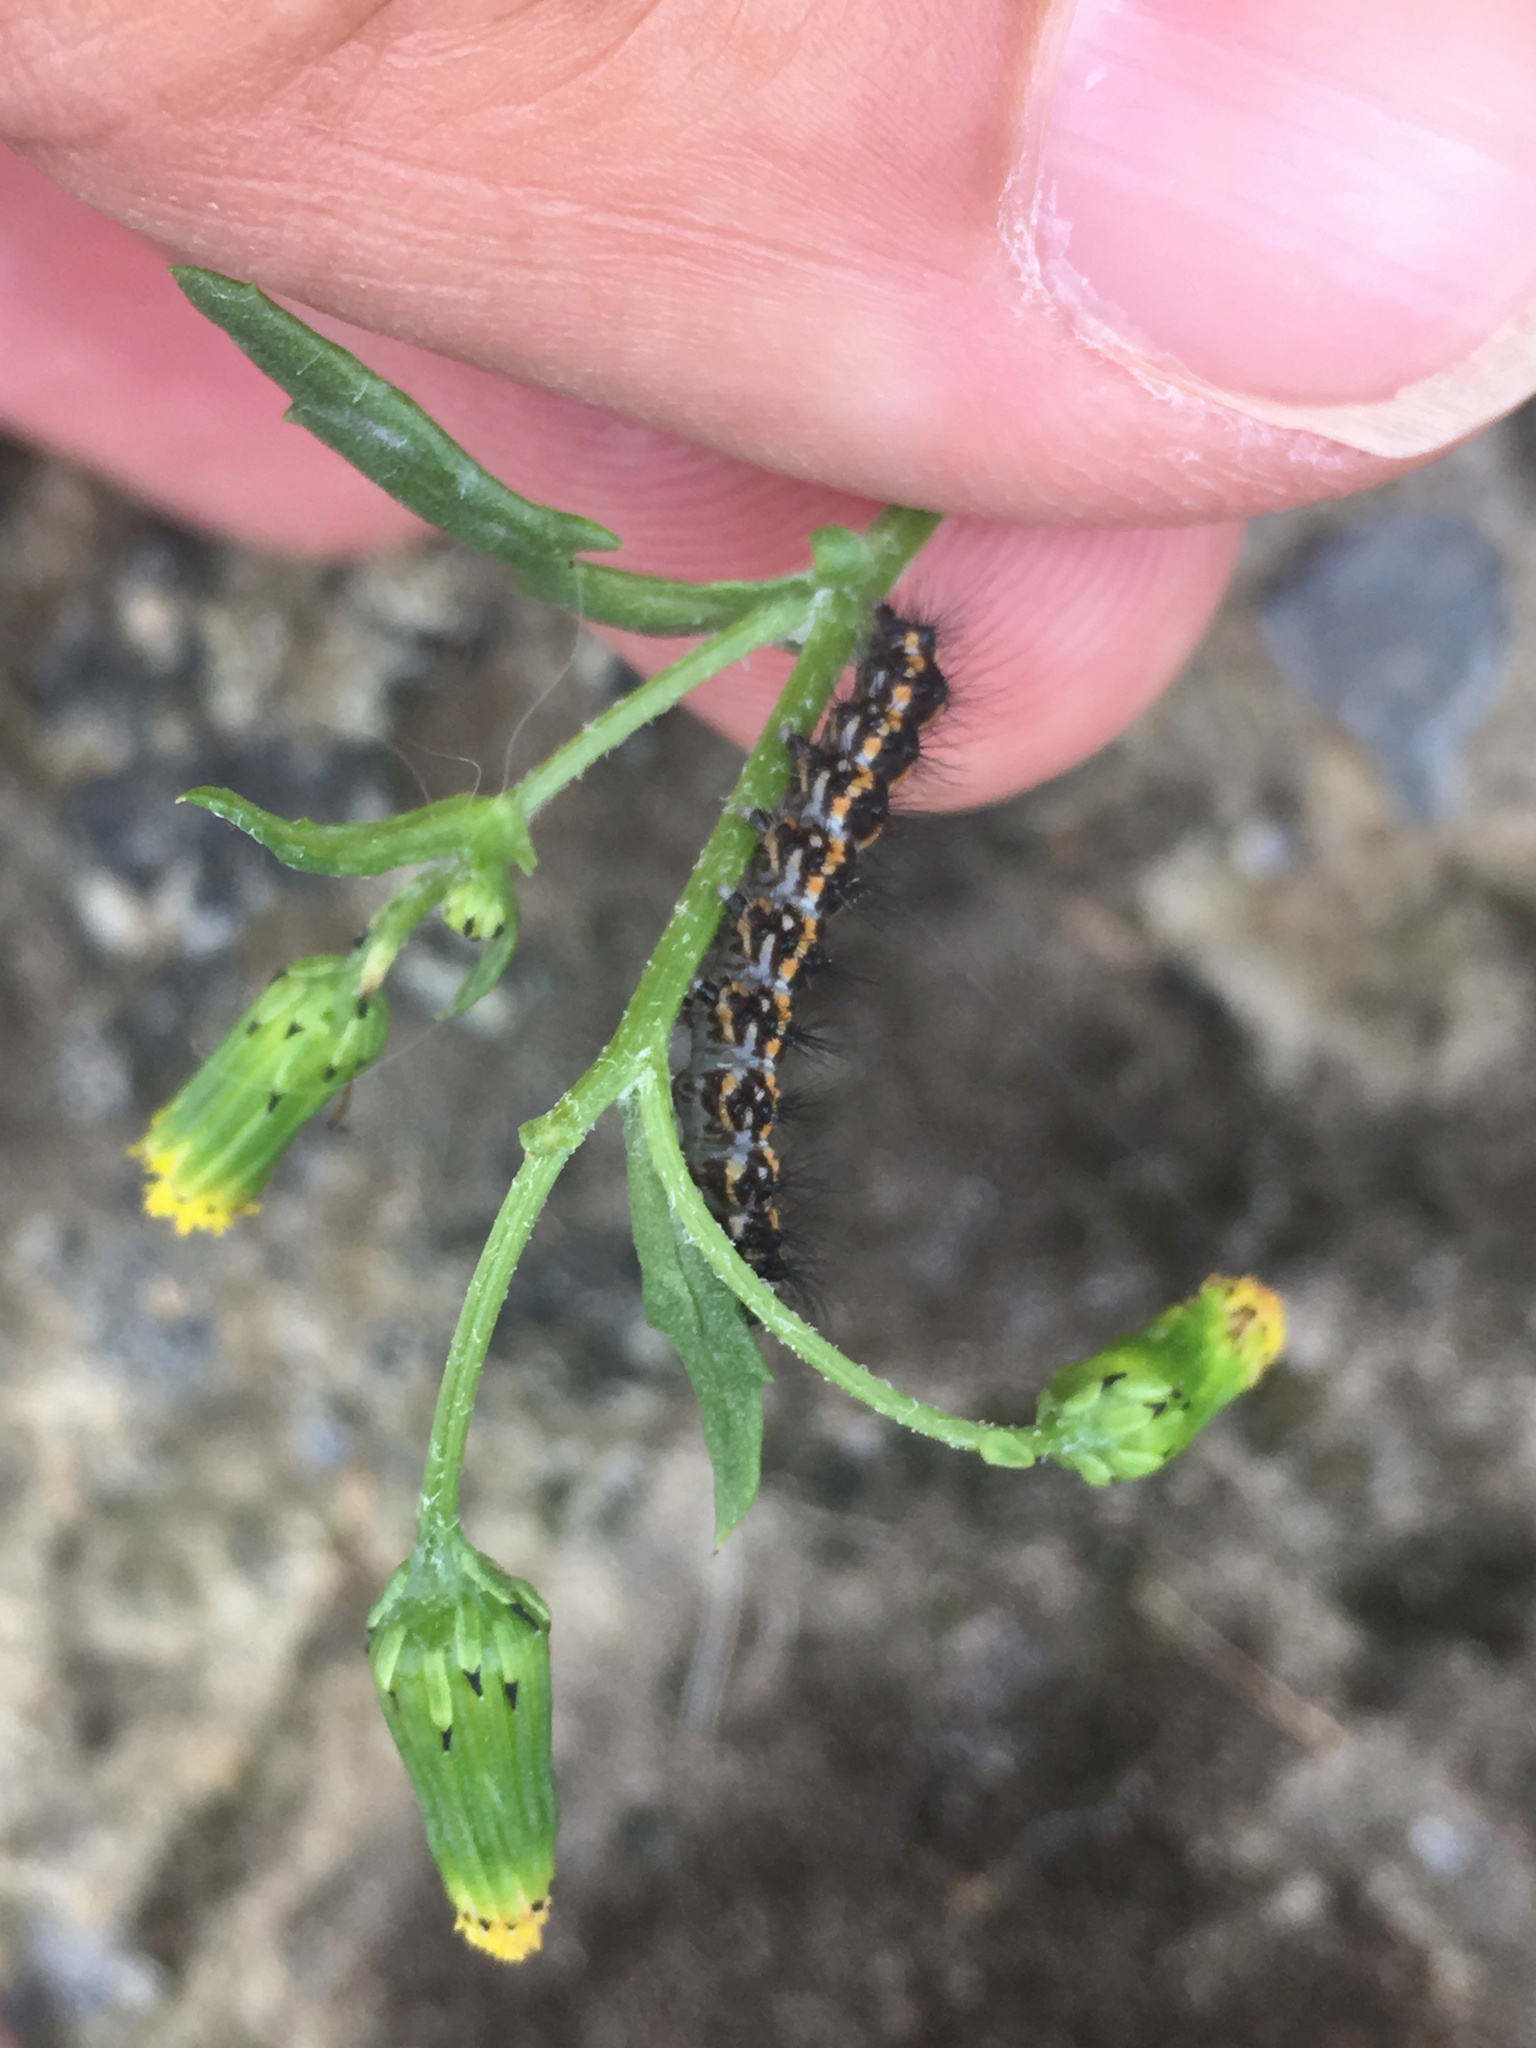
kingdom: Animalia
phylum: Arthropoda
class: Insecta
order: Lepidoptera
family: Erebidae
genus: Nyctemera
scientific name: Nyctemera annulatum
